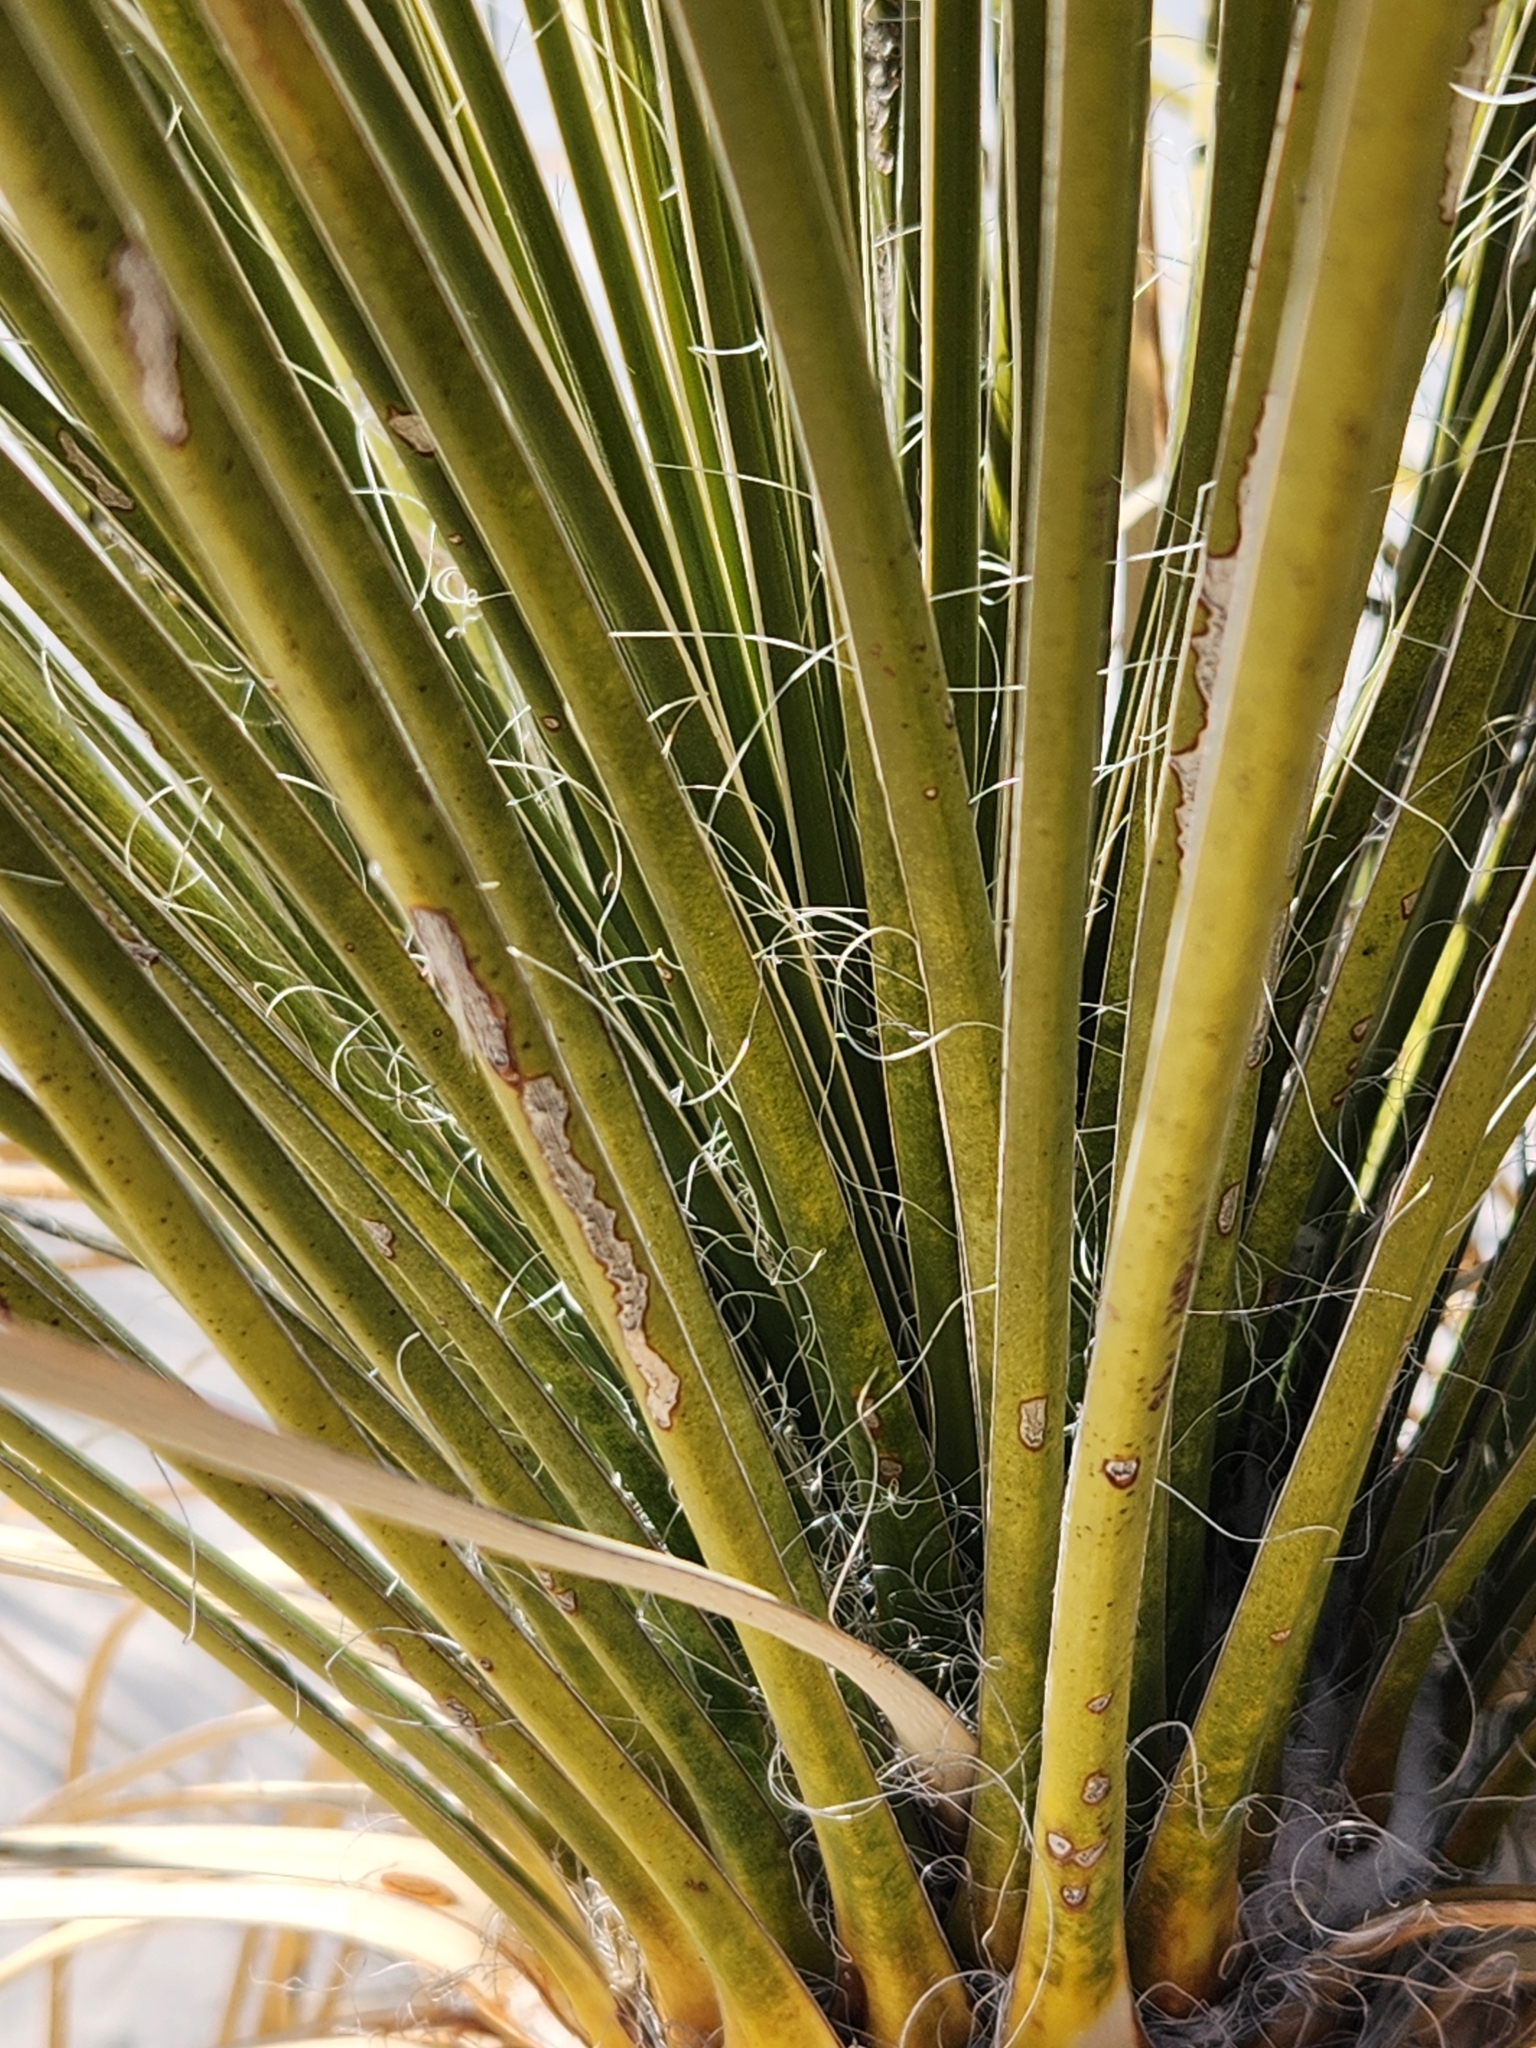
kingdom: Plantae
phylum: Tracheophyta
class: Liliopsida
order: Asparagales
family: Asparagaceae
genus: Yucca
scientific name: Yucca elata
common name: Palmella
